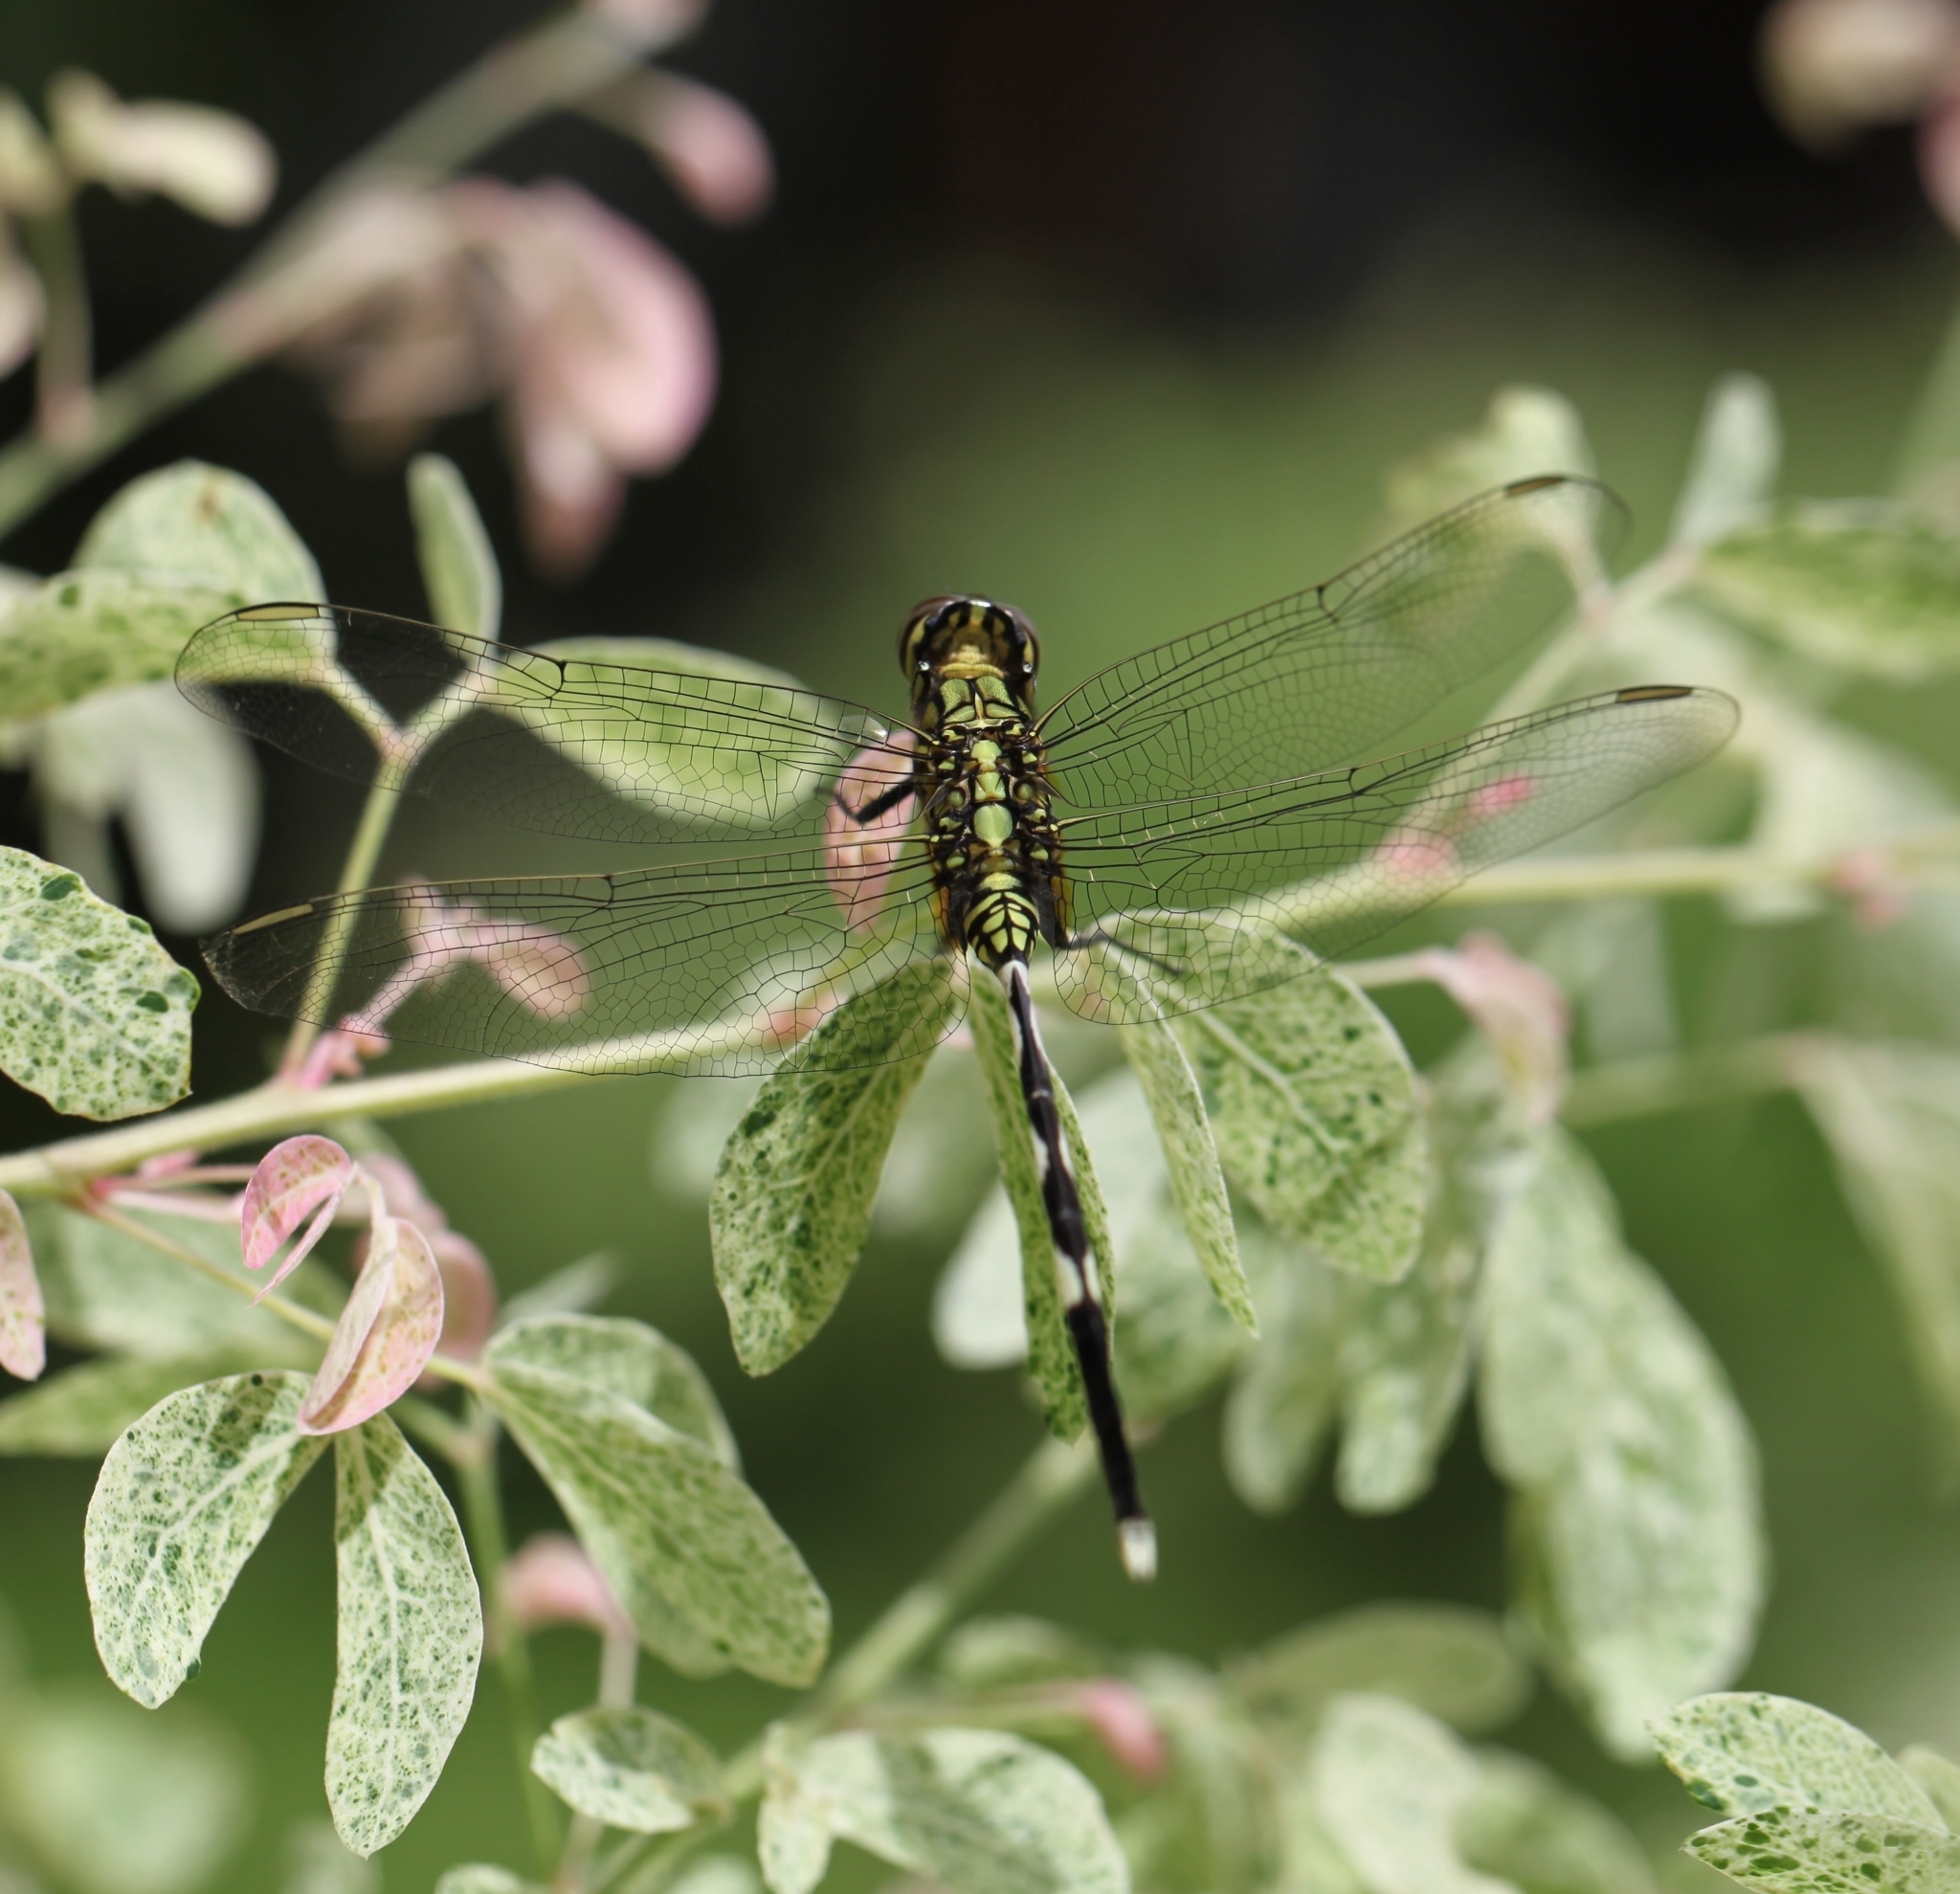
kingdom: Animalia
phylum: Arthropoda
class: Insecta
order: Odonata
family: Libellulidae
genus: Orthetrum
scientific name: Orthetrum sabina
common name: Slender skimmer
